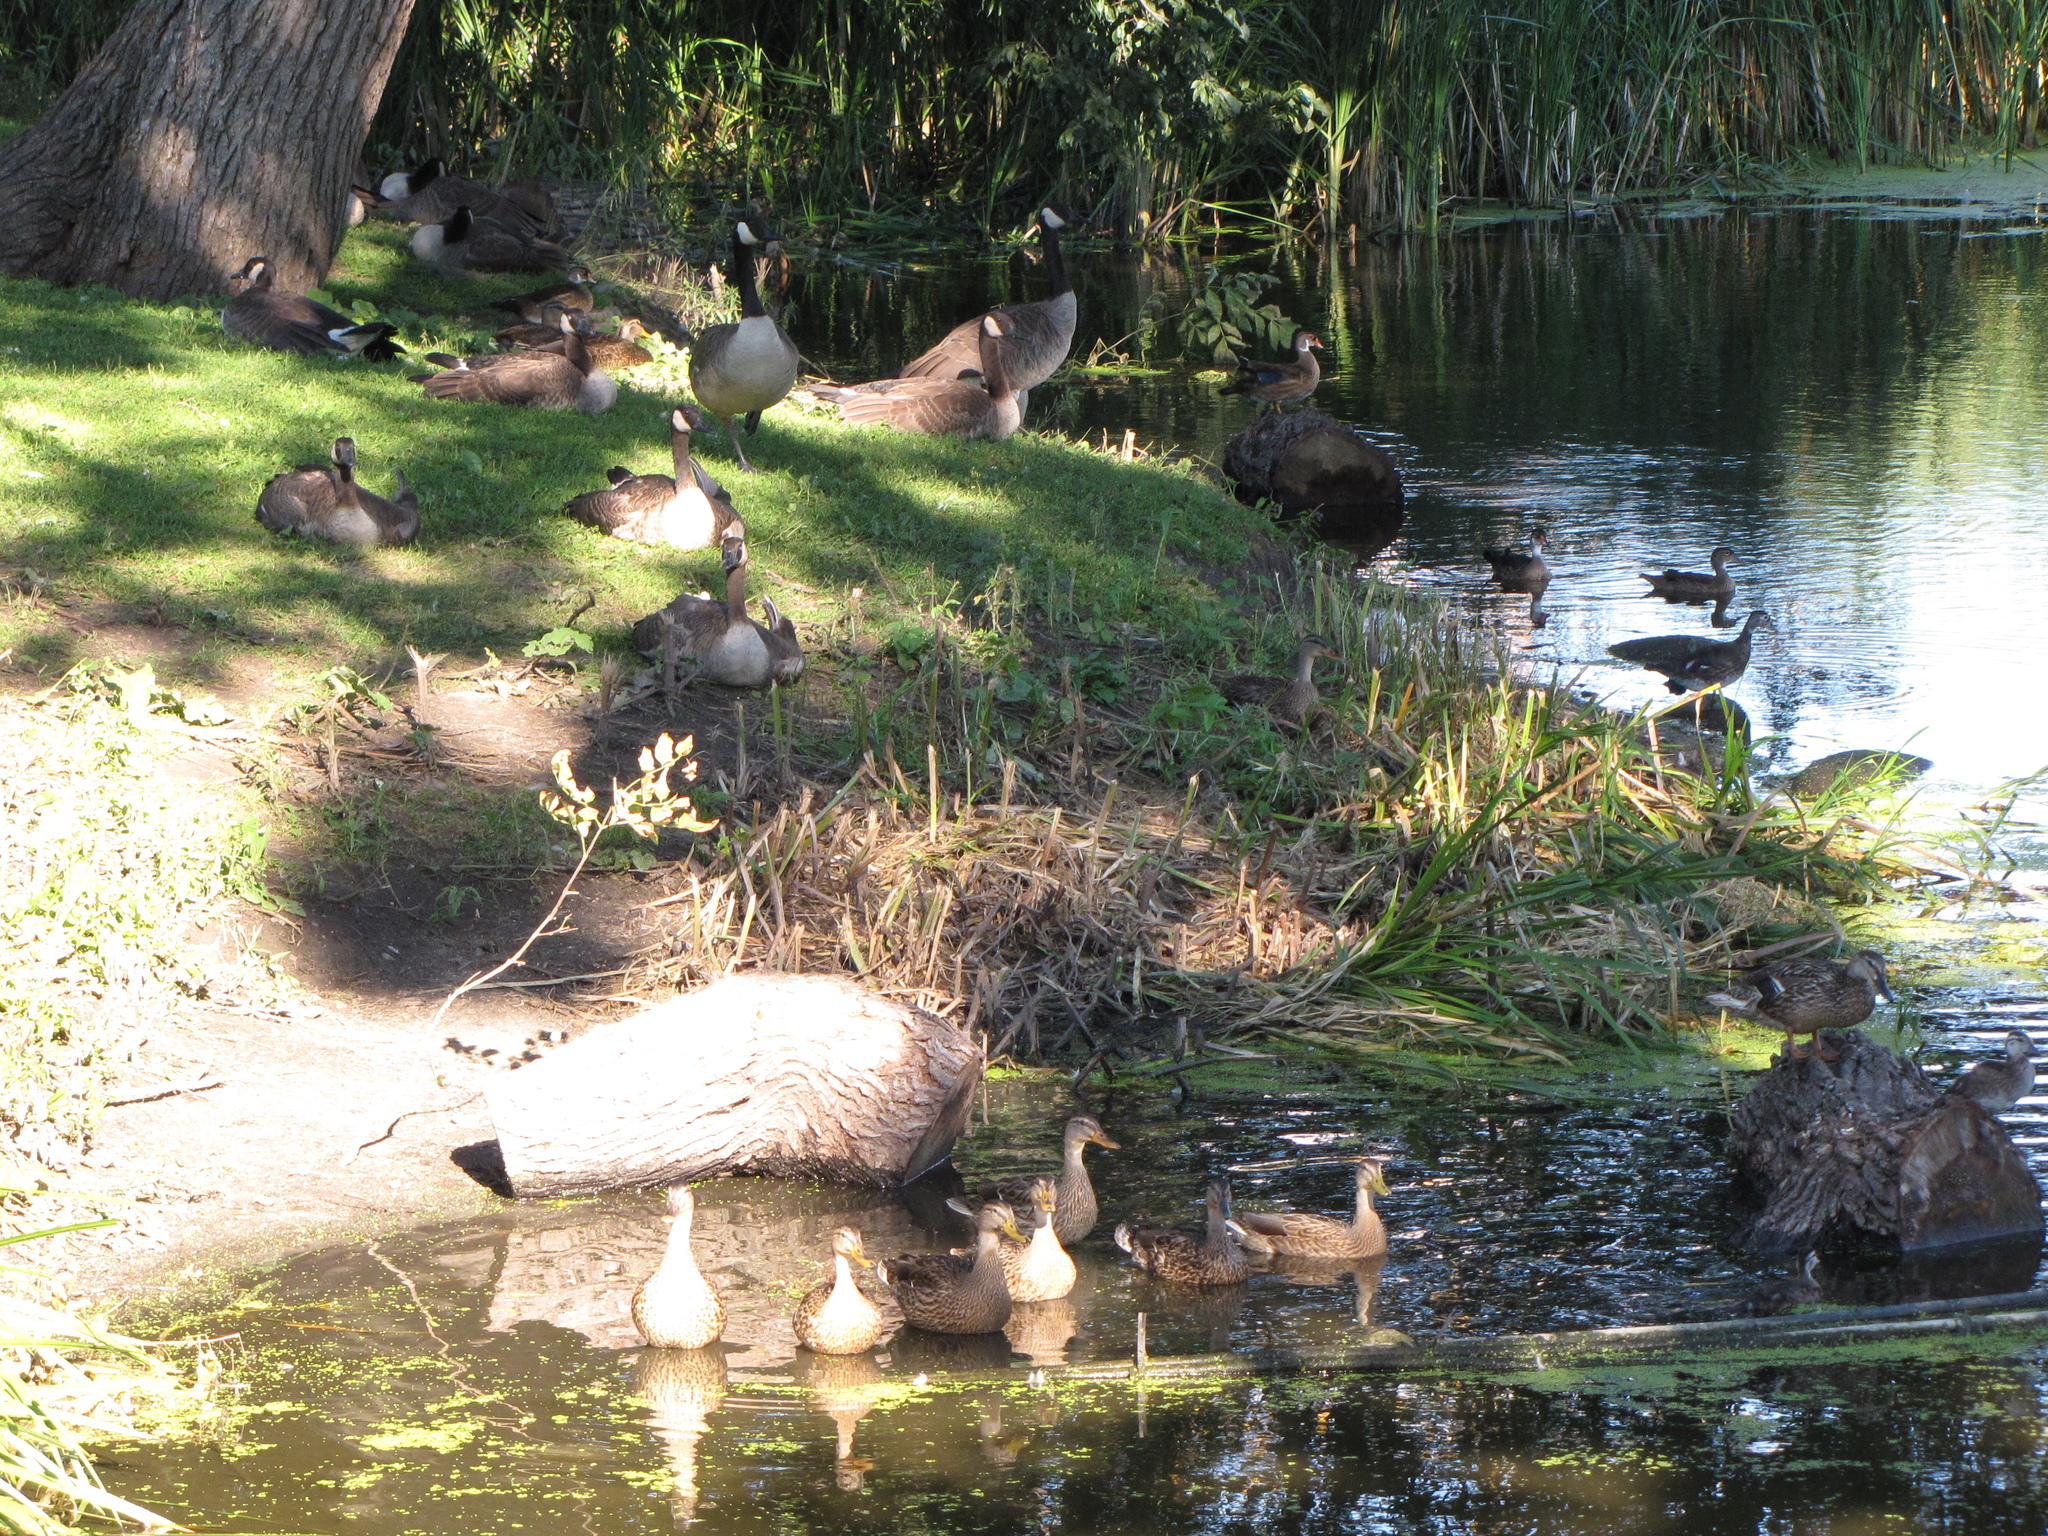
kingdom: Animalia
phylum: Chordata
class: Aves
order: Anseriformes
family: Anatidae
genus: Anas
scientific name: Anas platyrhynchos
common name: Mallard
